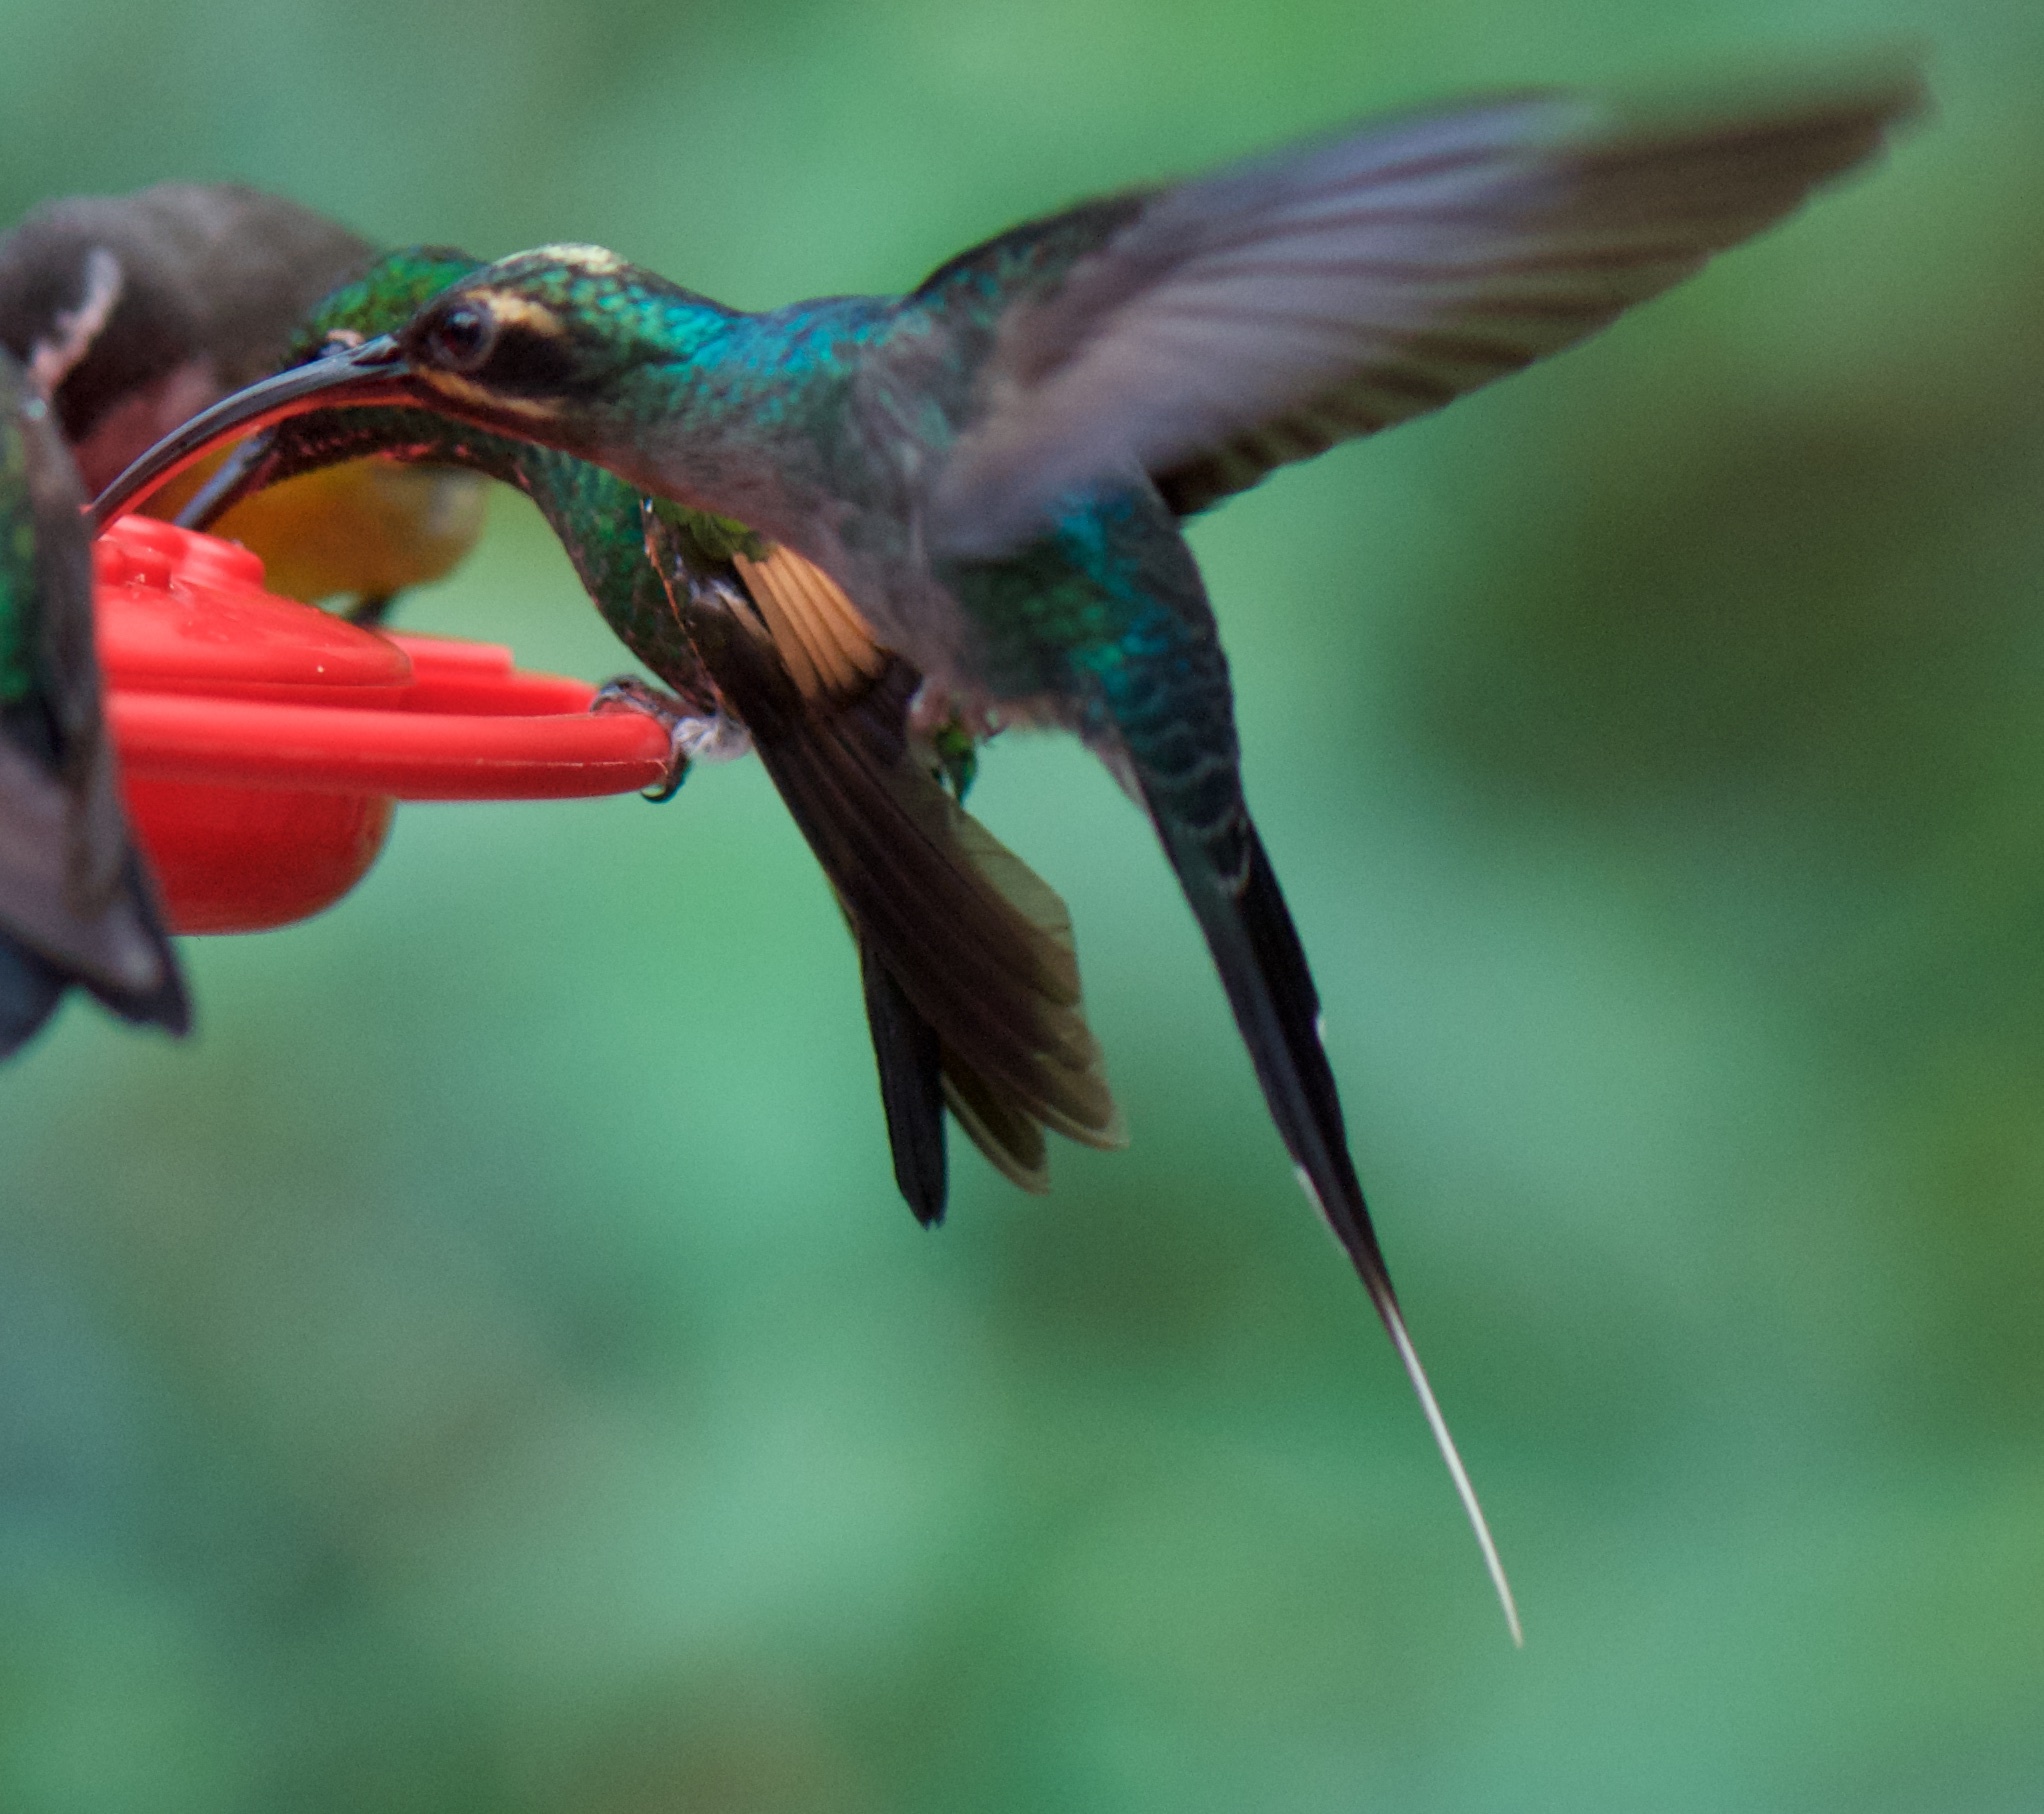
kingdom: Animalia
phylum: Chordata
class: Aves
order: Apodiformes
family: Trochilidae
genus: Phaethornis
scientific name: Phaethornis guy
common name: Green hermit
